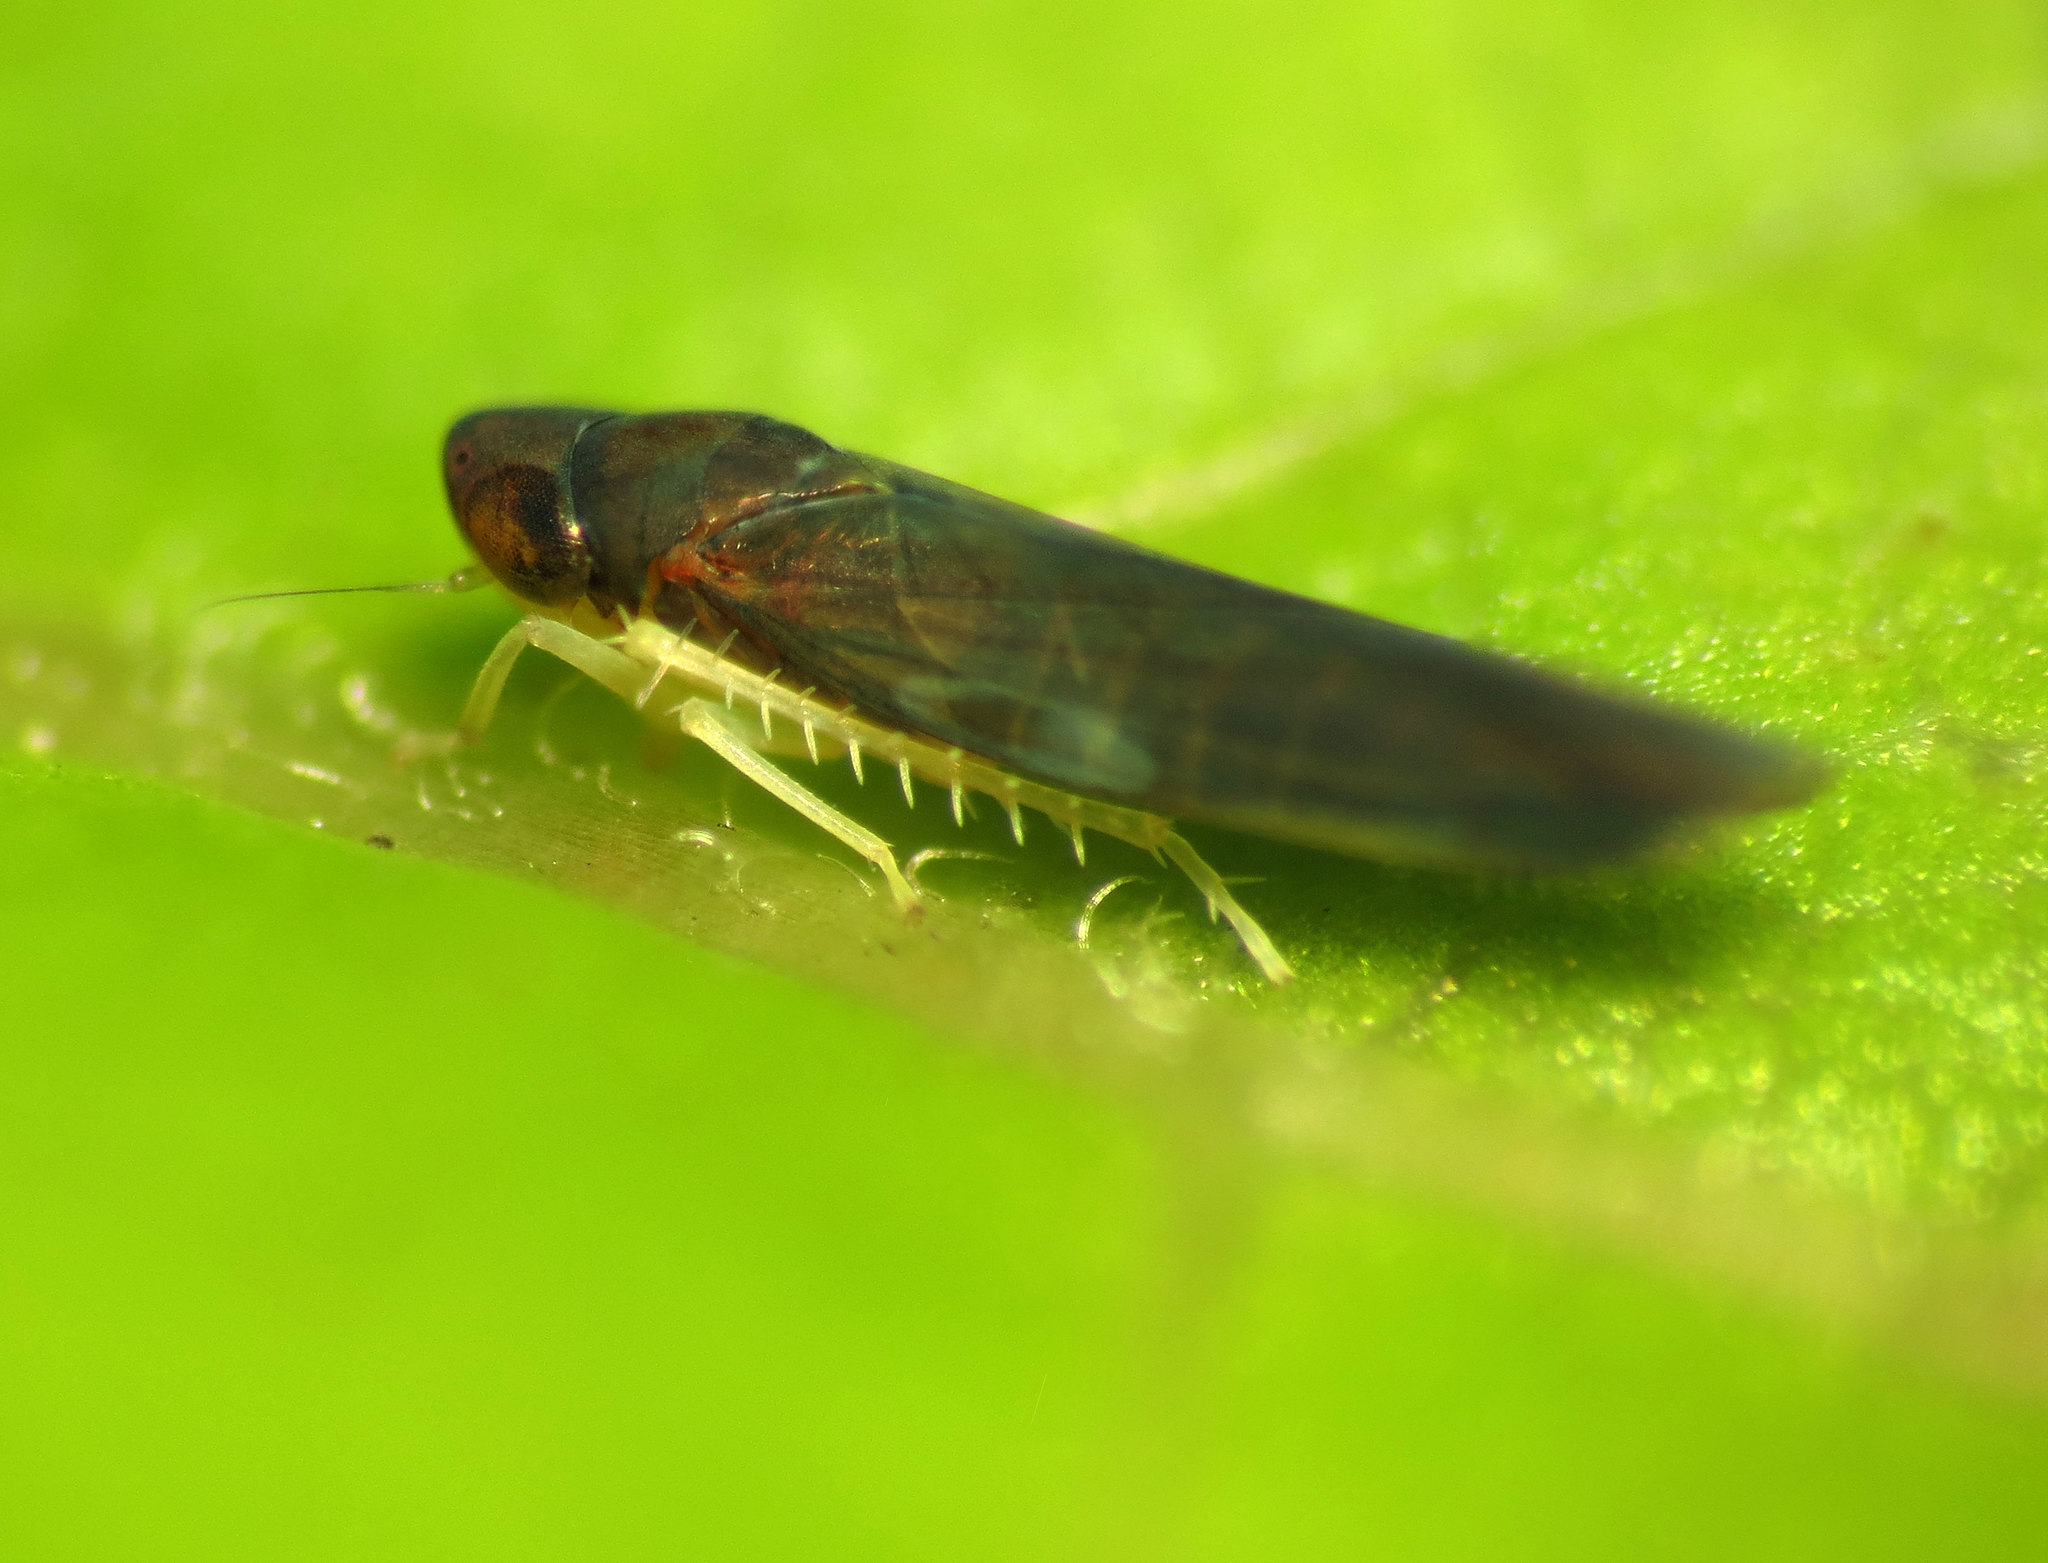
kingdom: Animalia
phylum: Arthropoda
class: Insecta
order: Hemiptera
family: Cicadellidae
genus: Joruma
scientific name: Joruma pisca
